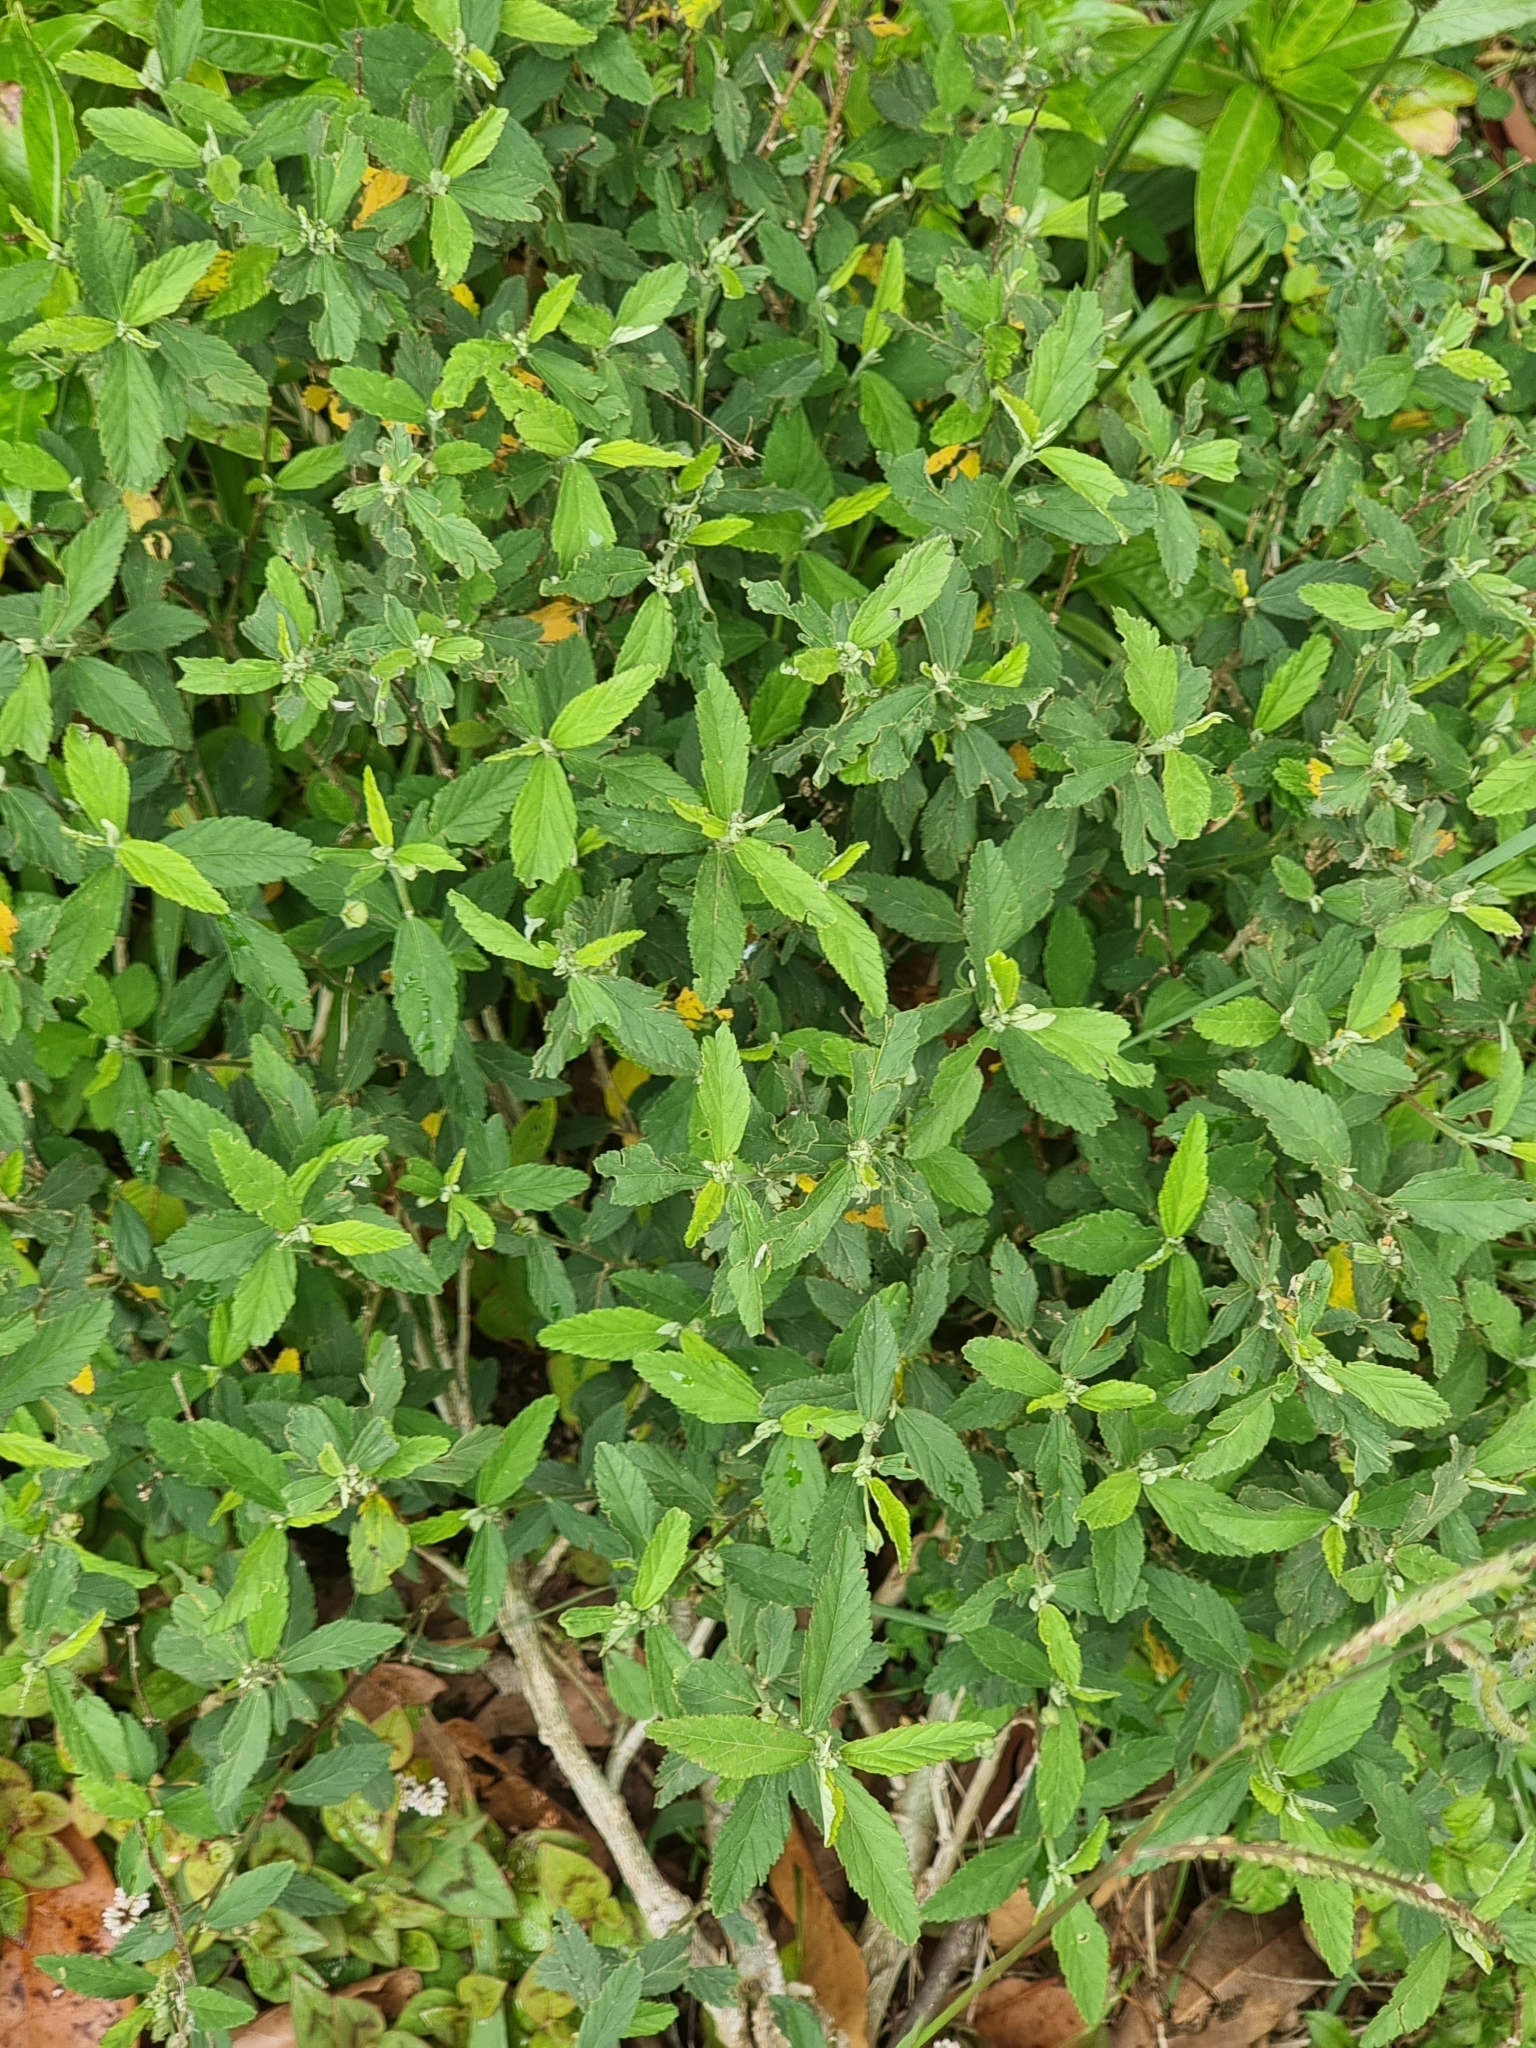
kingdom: Plantae
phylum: Tracheophyta
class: Magnoliopsida
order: Malvales
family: Malvaceae
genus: Sida
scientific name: Sida rhombifolia
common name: Queensland-hemp
